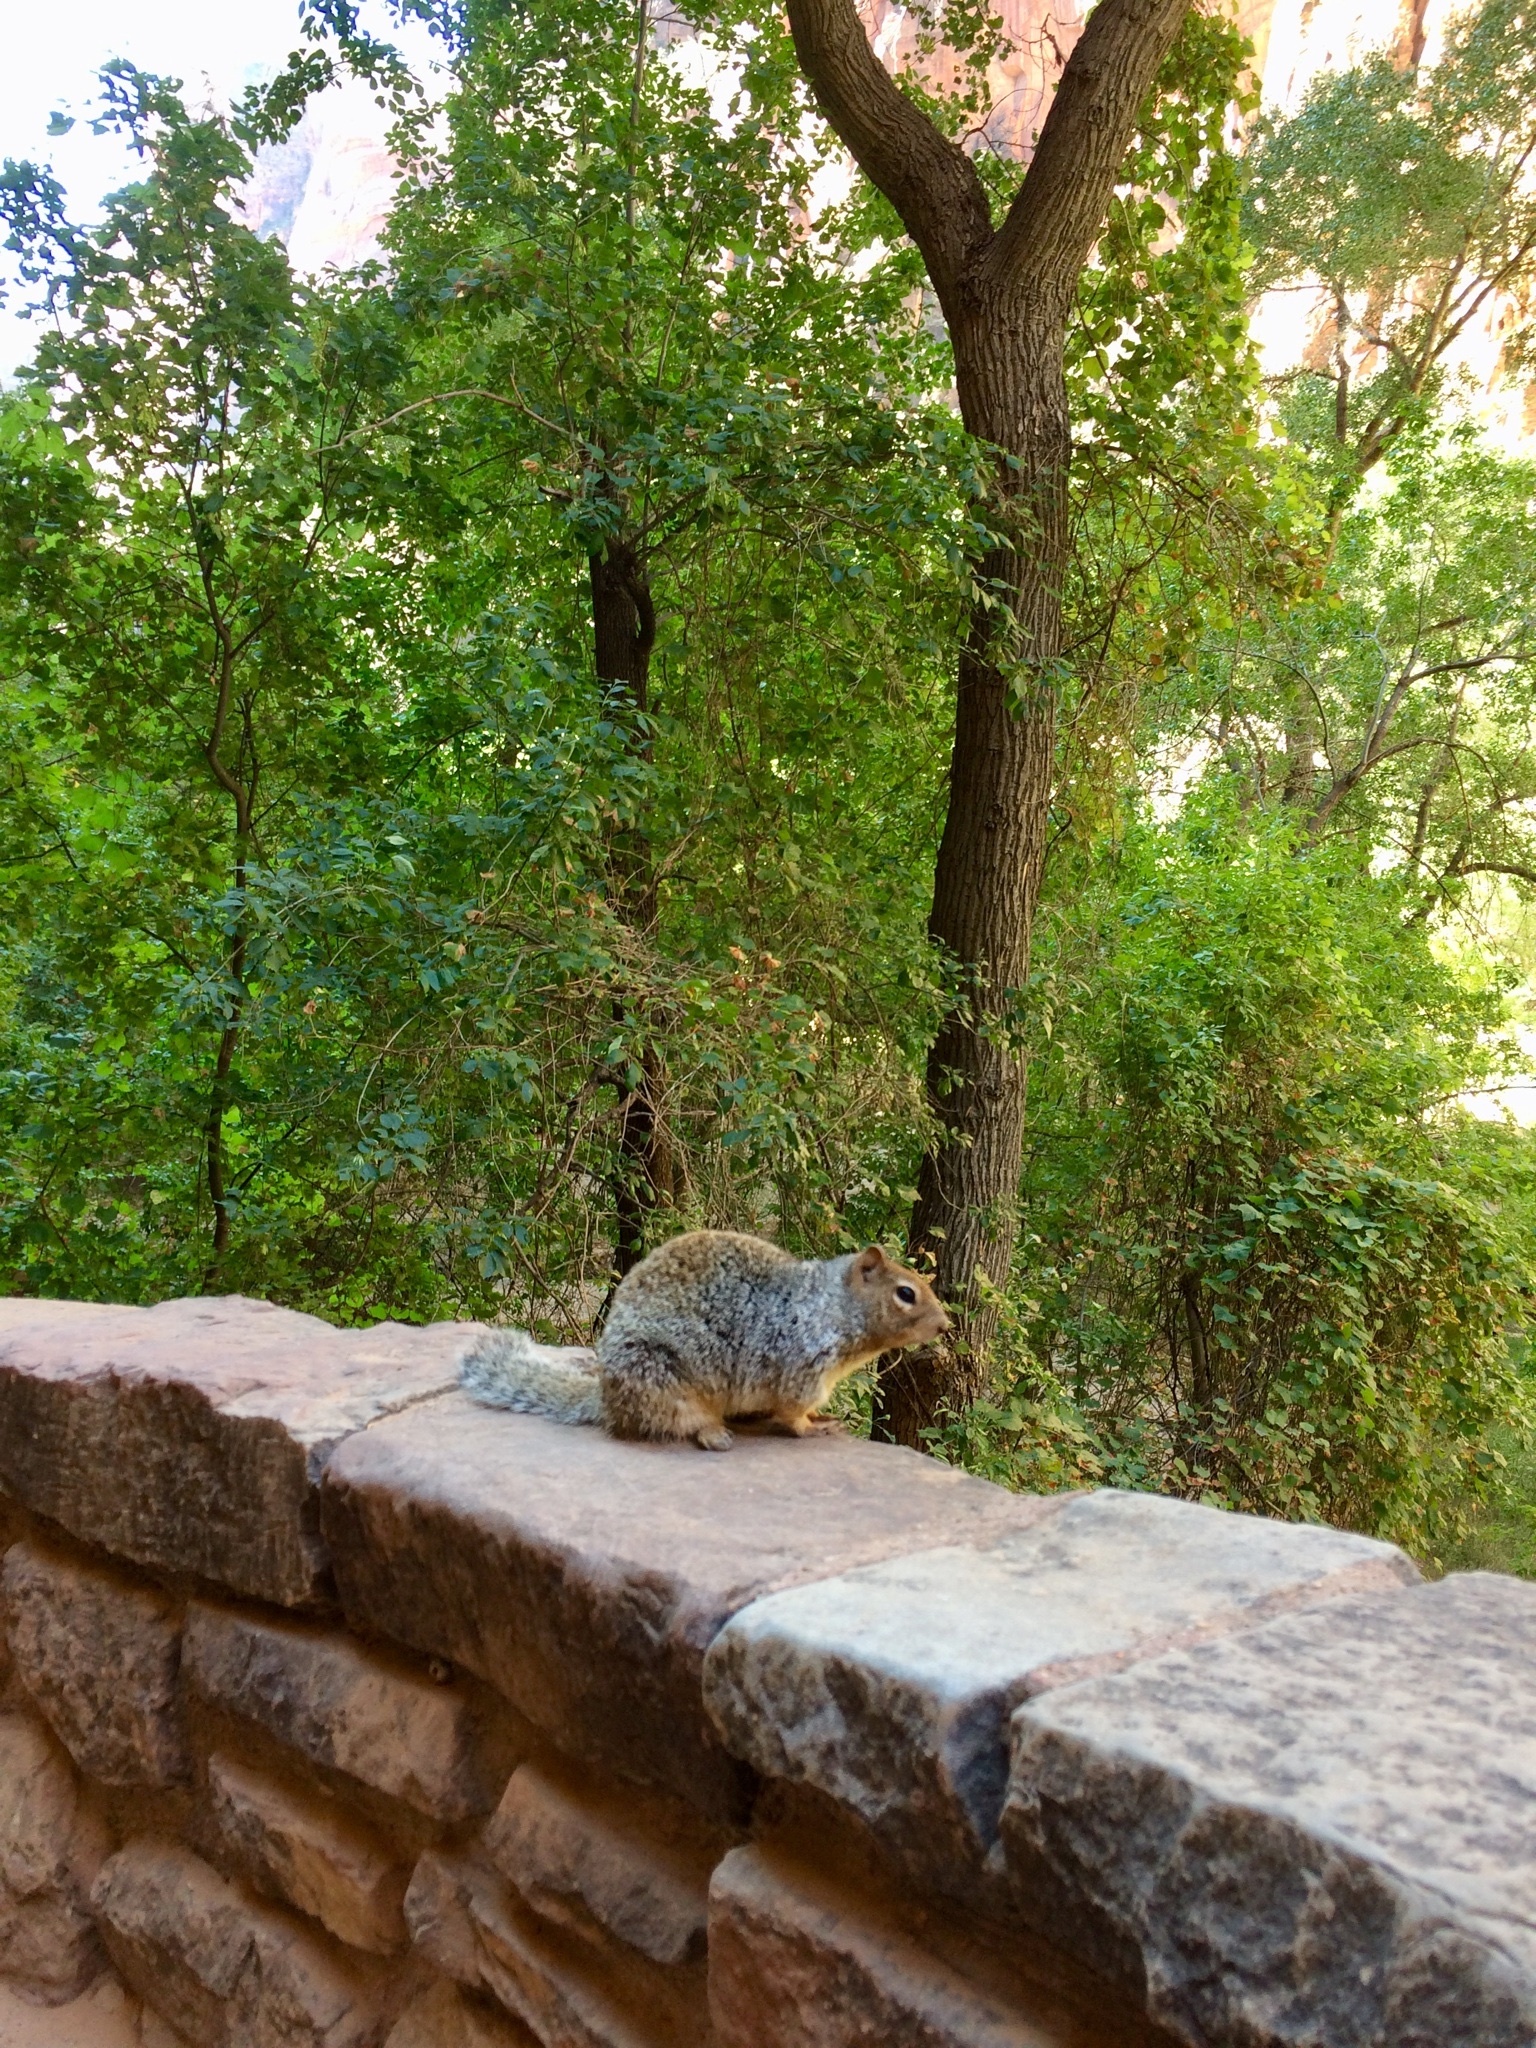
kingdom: Animalia
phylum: Chordata
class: Mammalia
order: Rodentia
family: Sciuridae
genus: Otospermophilus
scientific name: Otospermophilus variegatus
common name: Rock squirrel
